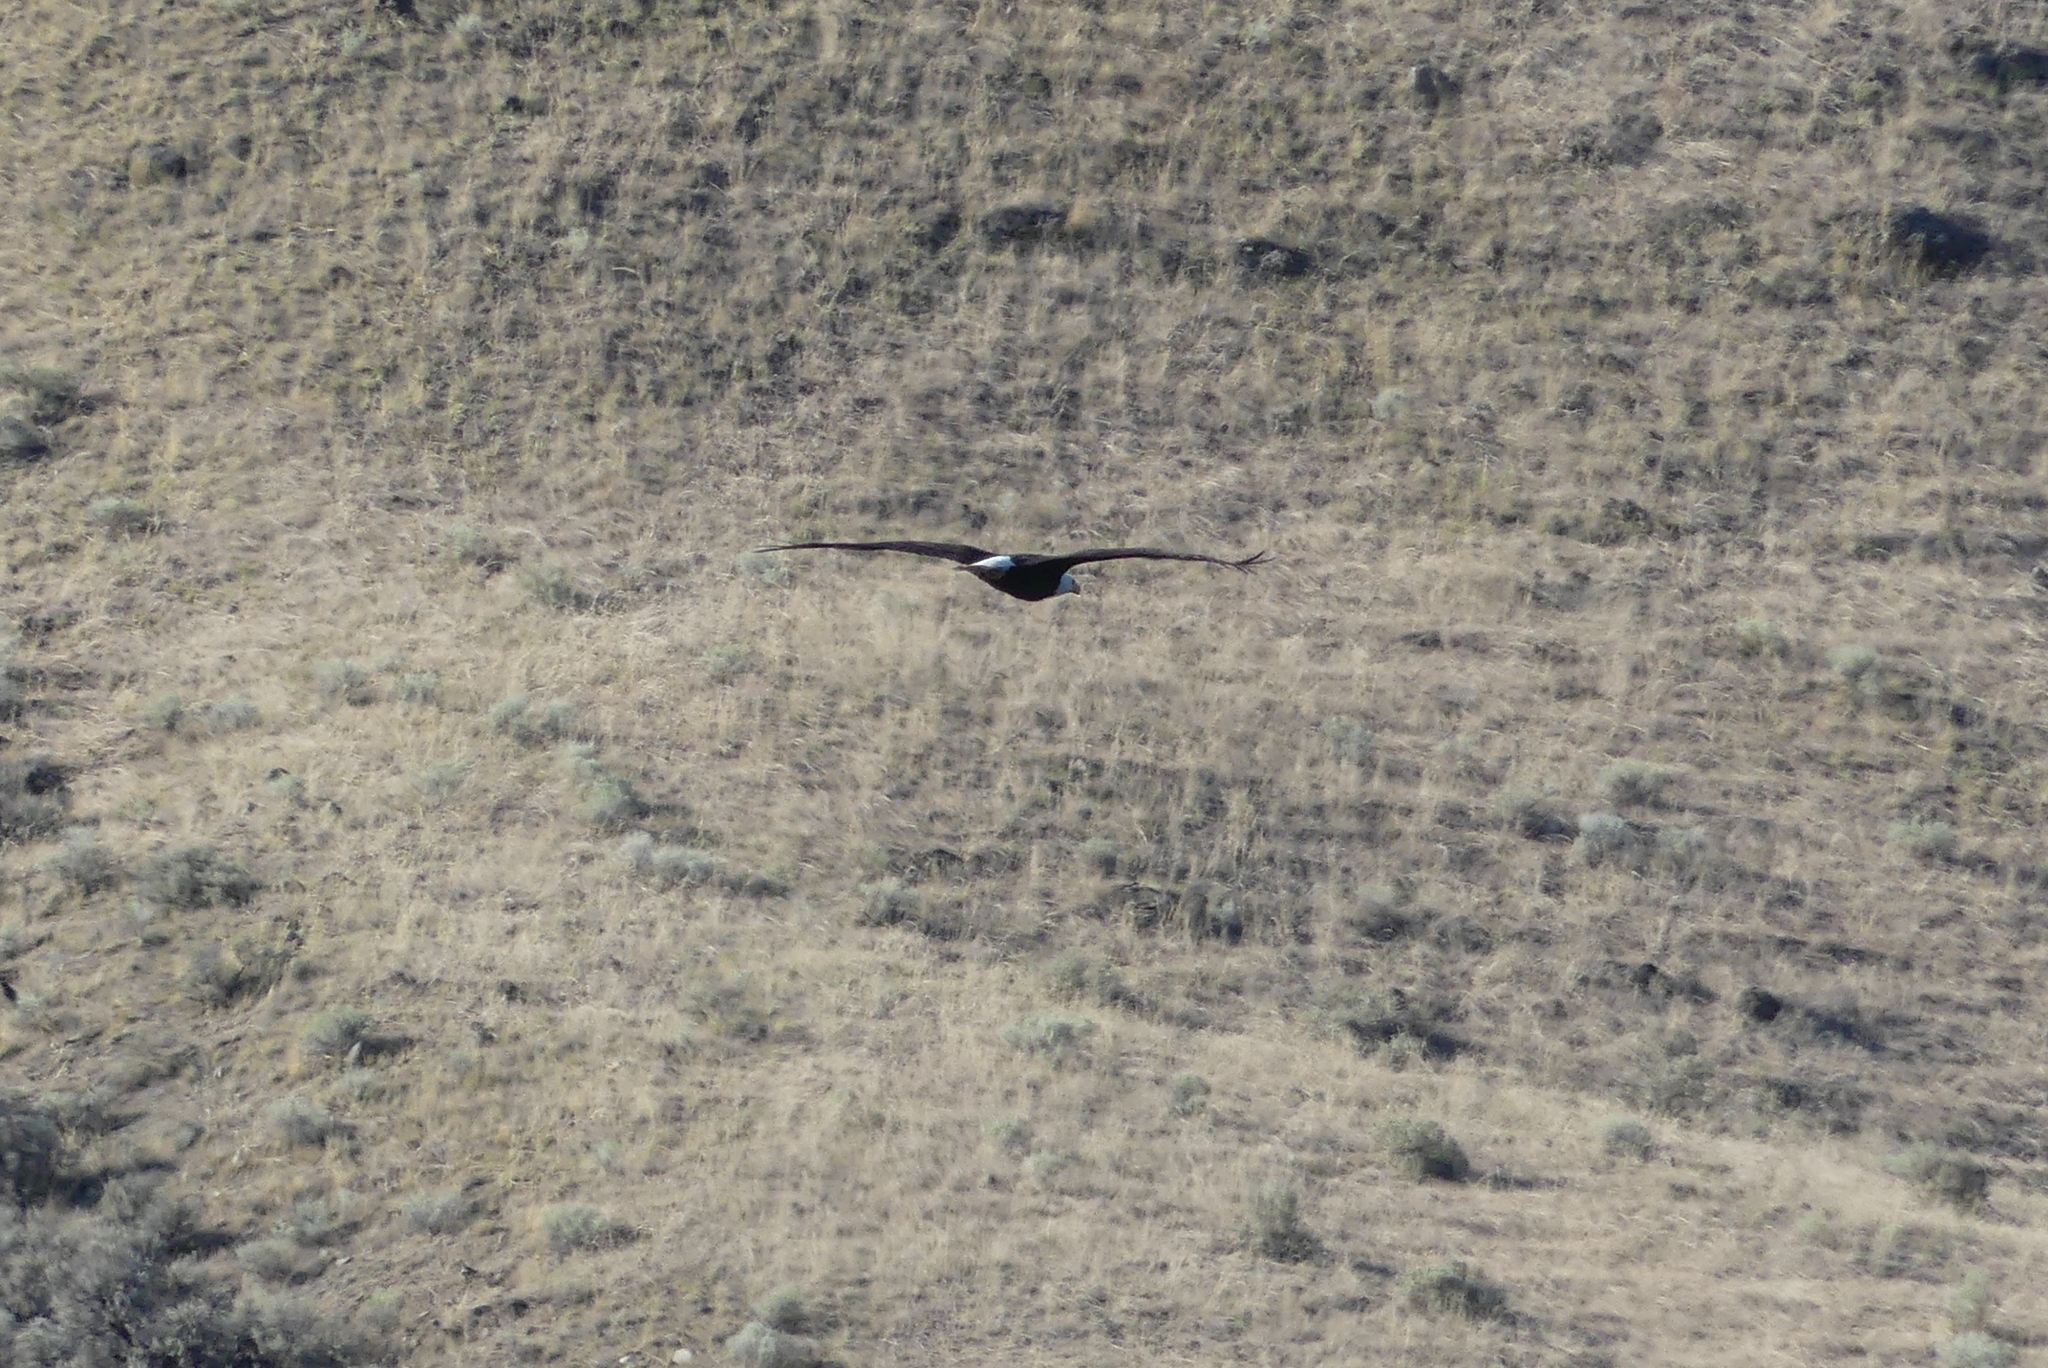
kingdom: Animalia
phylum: Chordata
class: Aves
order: Accipitriformes
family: Accipitridae
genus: Haliaeetus
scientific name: Haliaeetus leucocephalus
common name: Bald eagle
